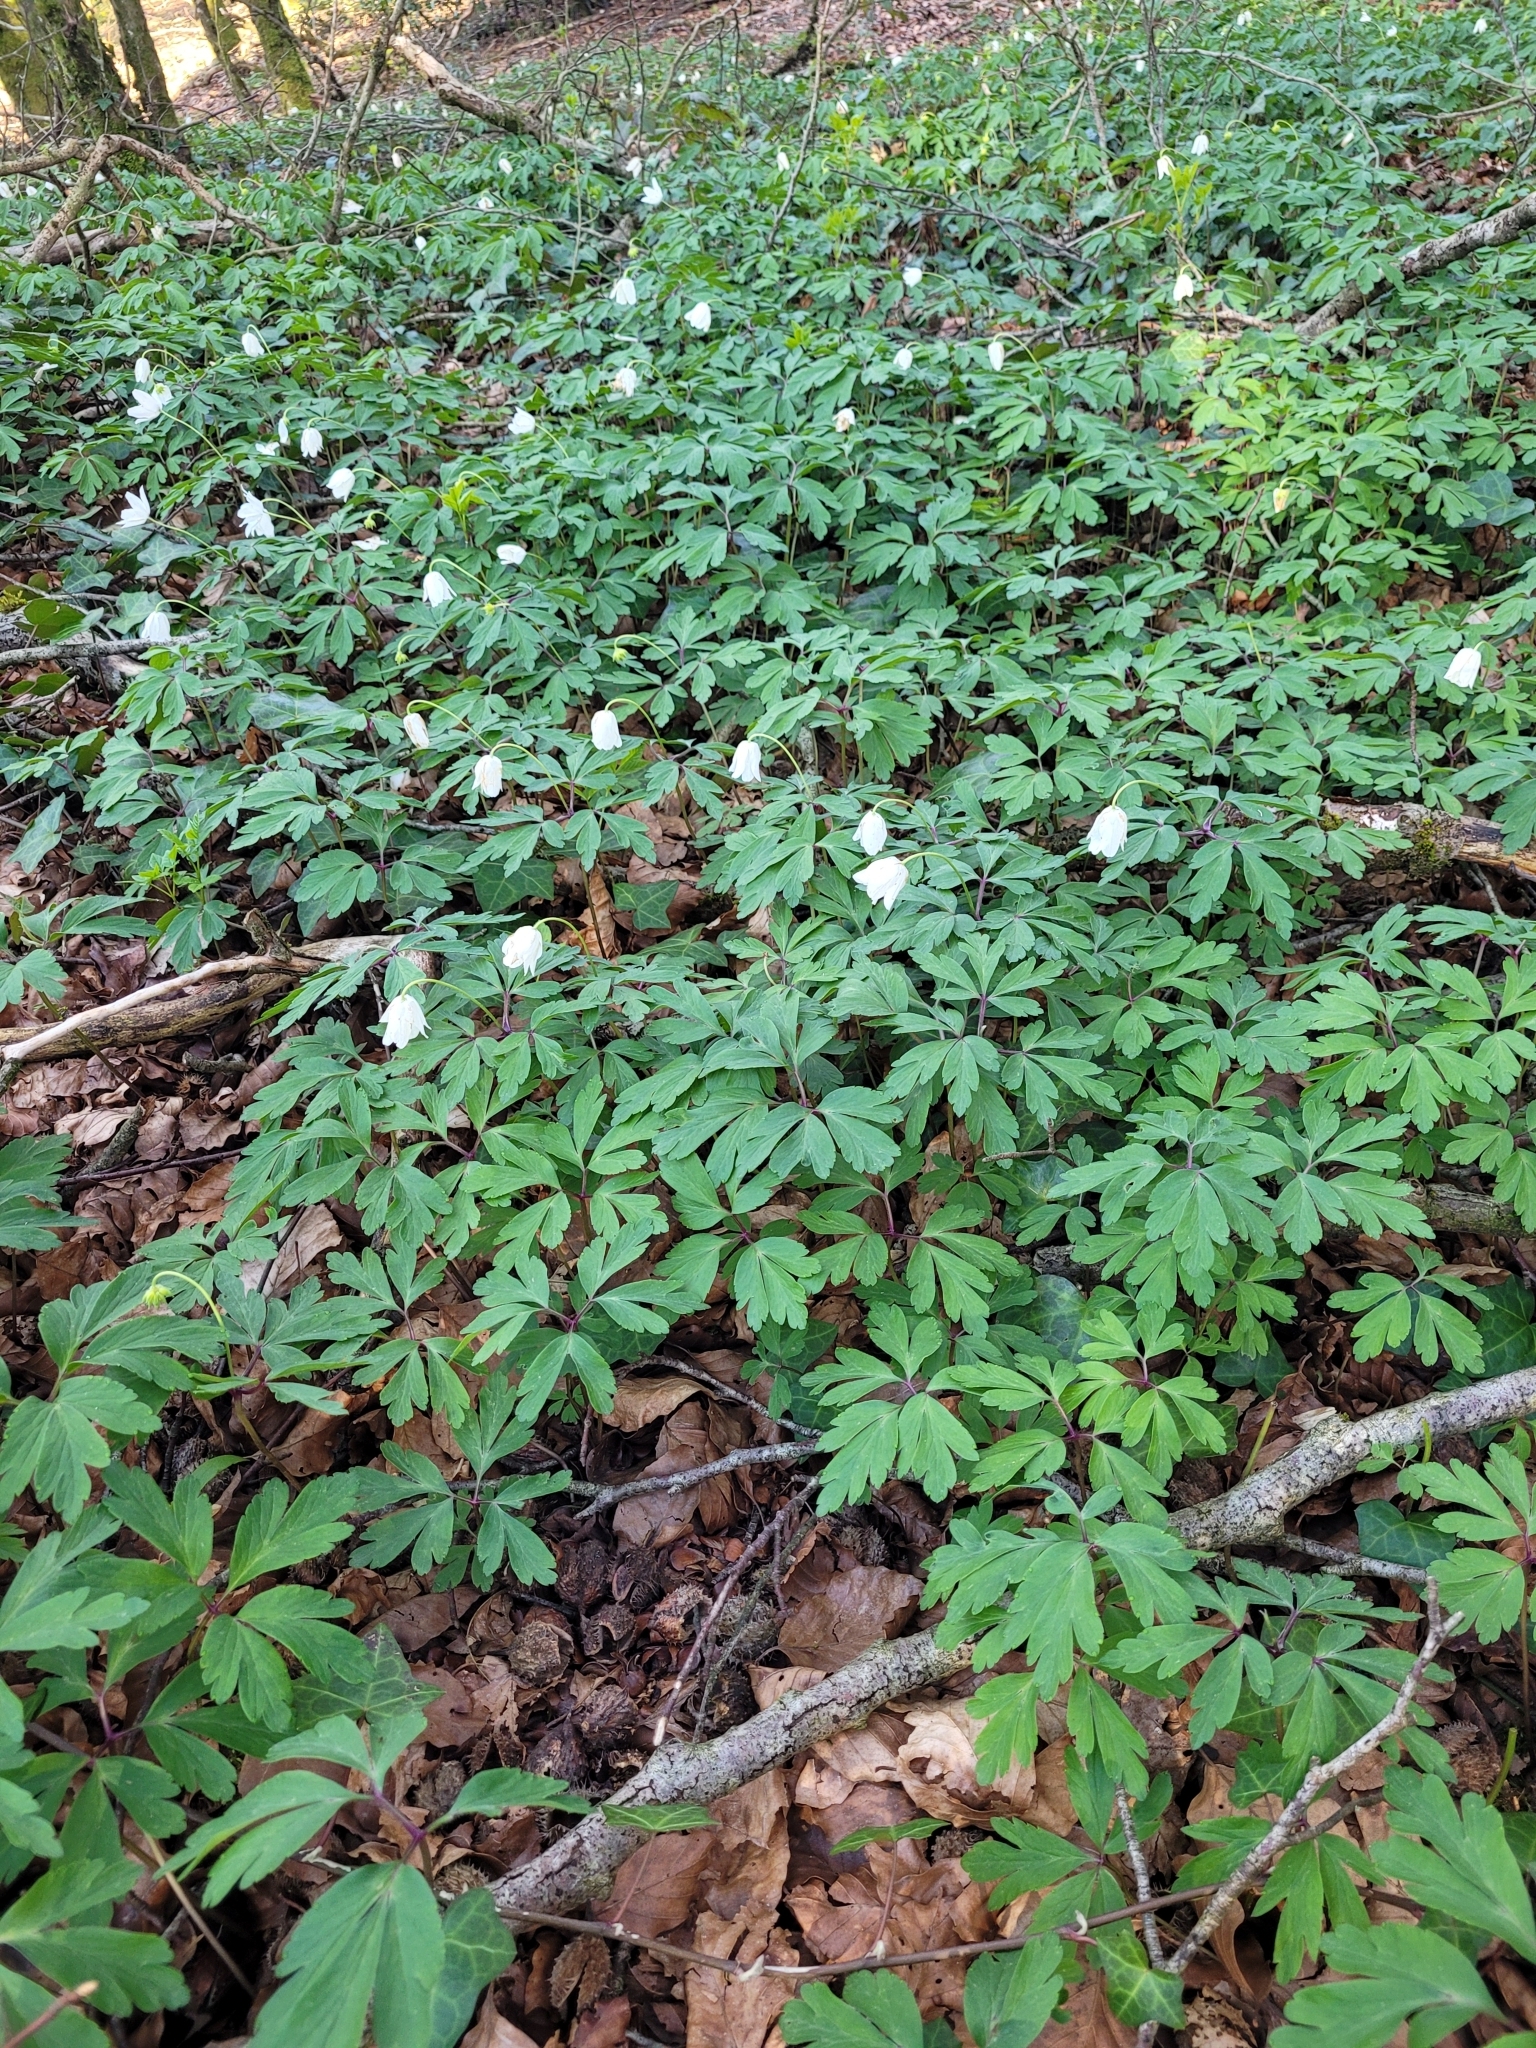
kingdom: Plantae
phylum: Tracheophyta
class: Magnoliopsida
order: Ranunculales
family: Ranunculaceae
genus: Anemone
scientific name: Anemone nemorosa
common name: Wood anemone
